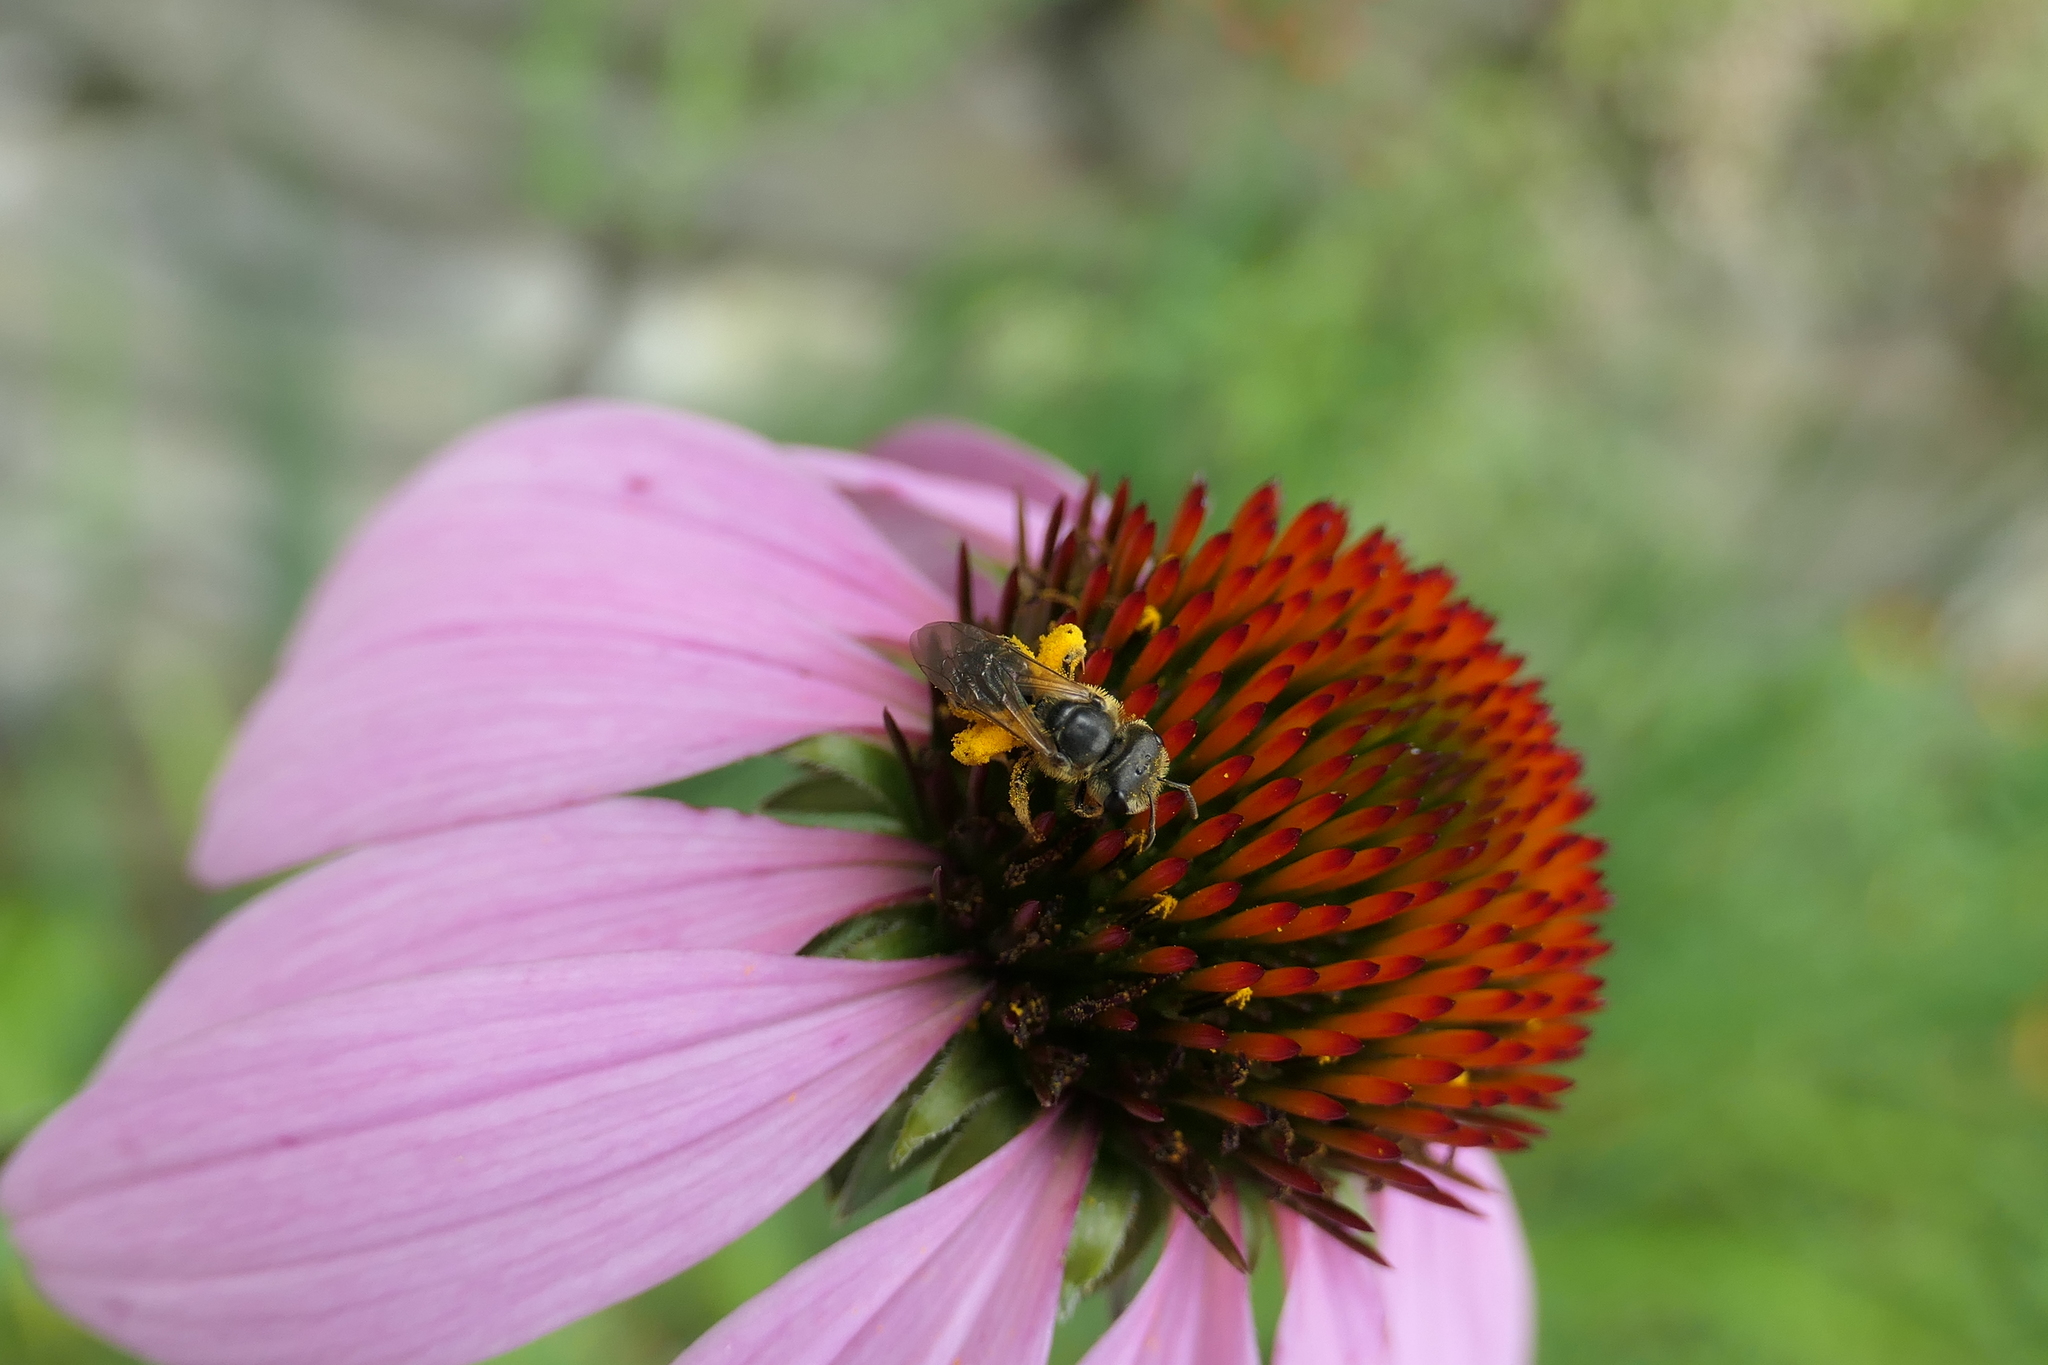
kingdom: Animalia
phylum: Arthropoda
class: Insecta
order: Hymenoptera
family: Halictidae
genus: Halictus
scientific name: Halictus ligatus
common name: Ligated furrow bee
